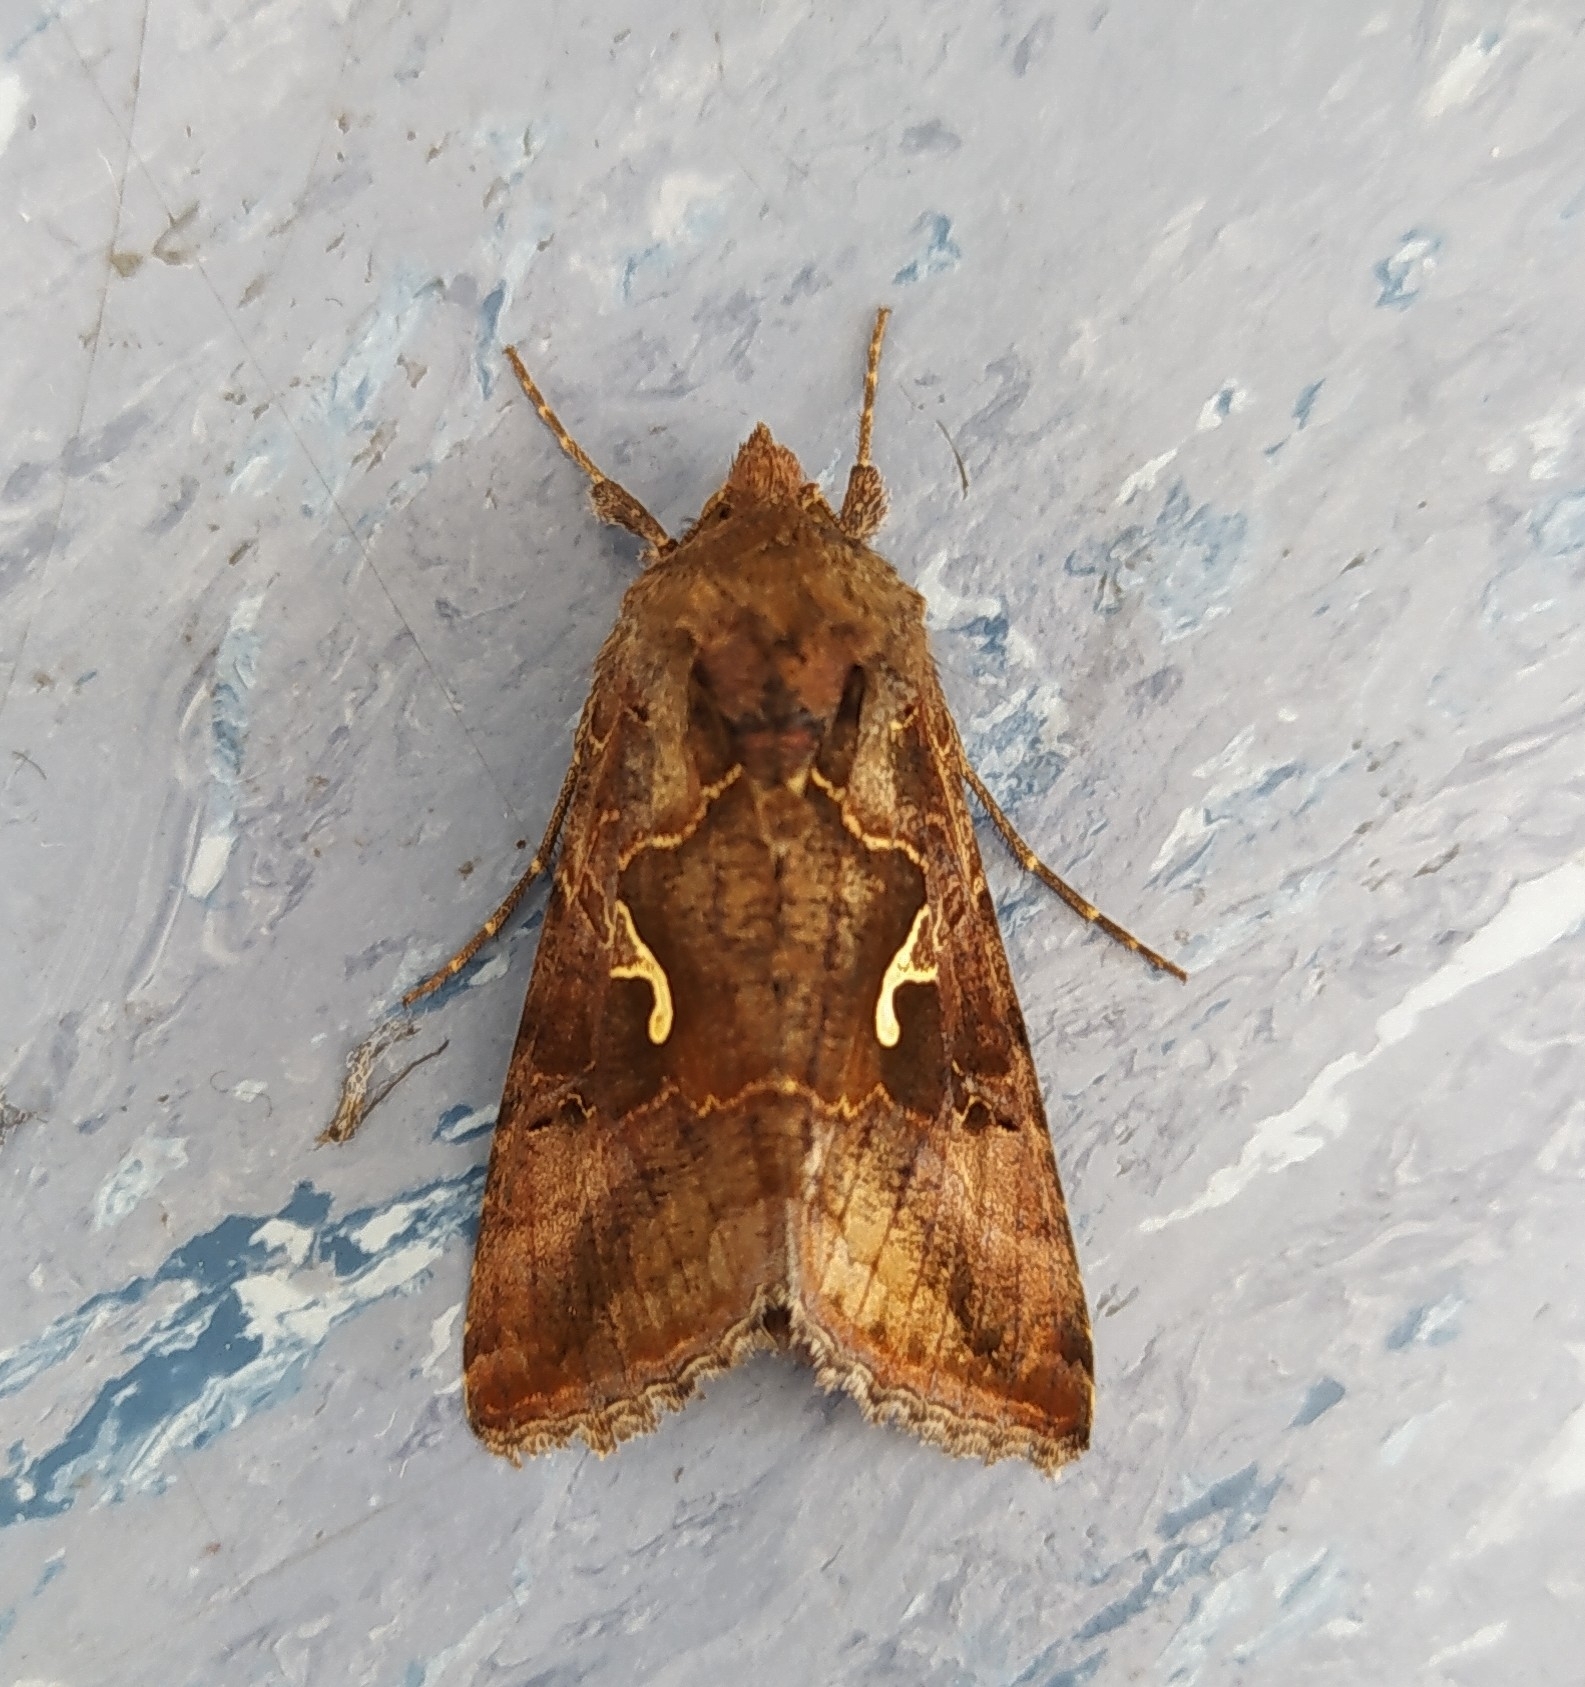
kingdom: Animalia
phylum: Arthropoda
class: Insecta
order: Lepidoptera
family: Noctuidae
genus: Autographa
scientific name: Autographa gamma
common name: Silver y
